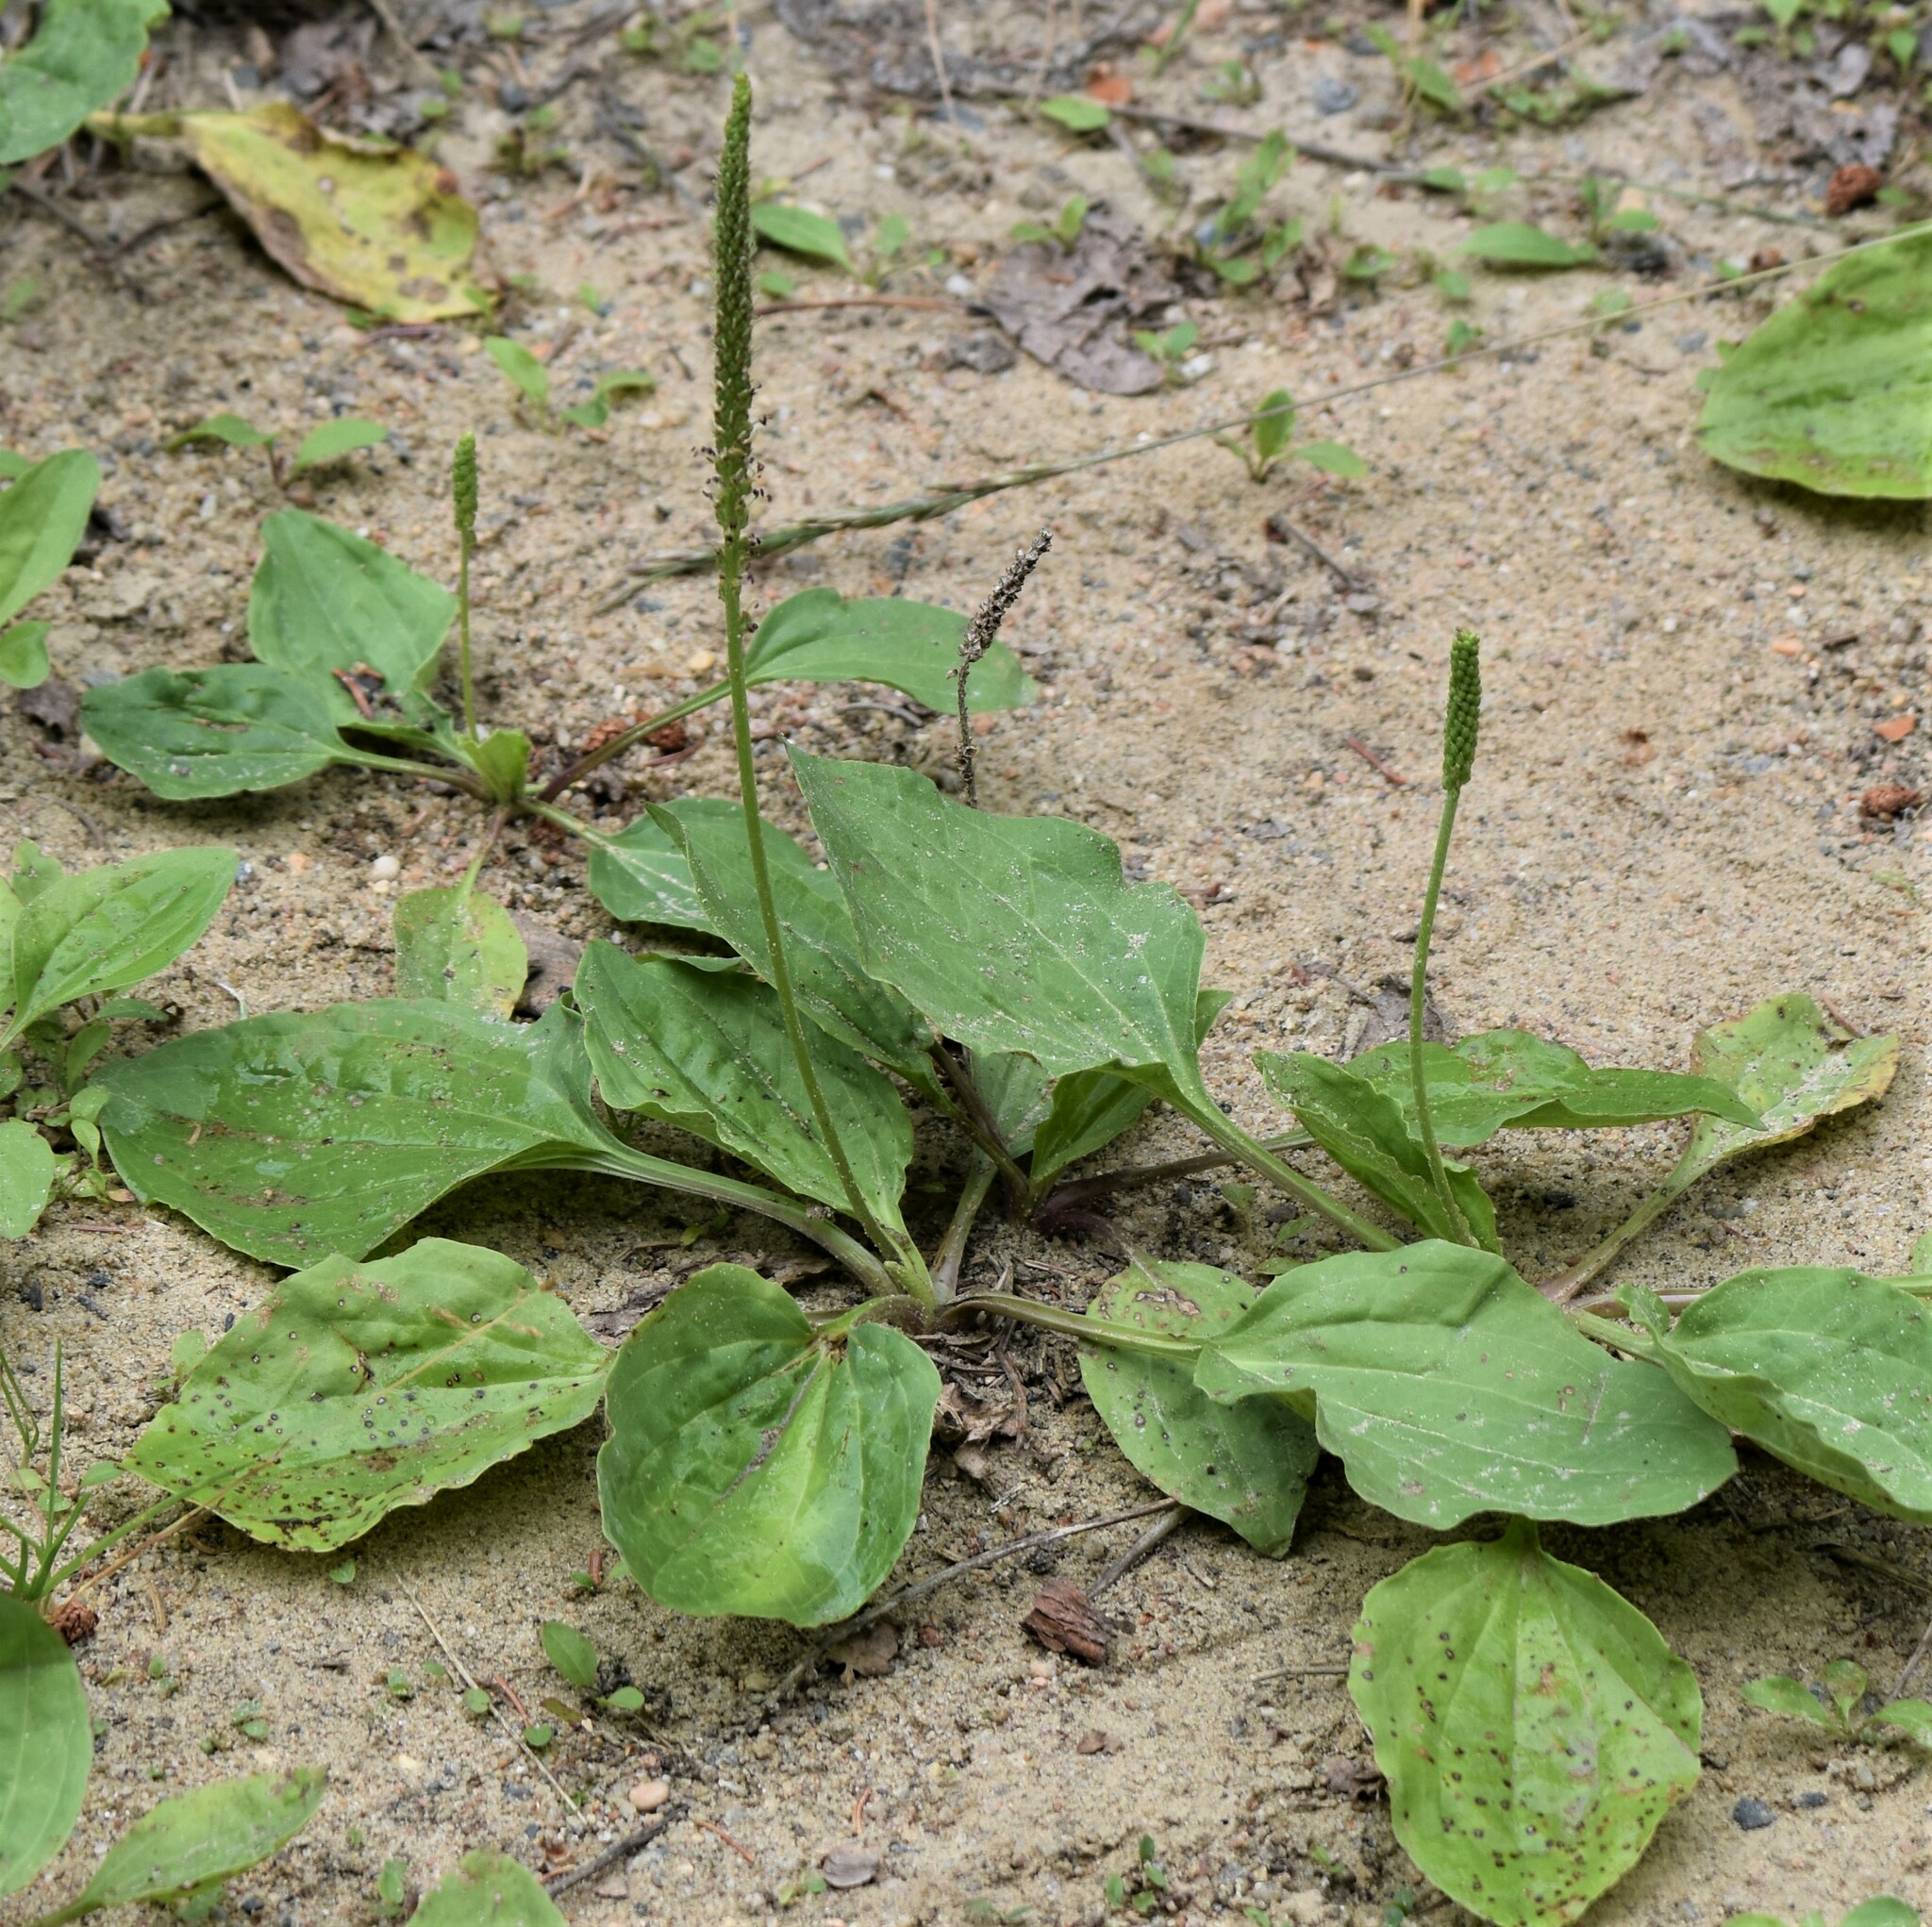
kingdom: Plantae
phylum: Tracheophyta
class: Magnoliopsida
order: Lamiales
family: Plantaginaceae
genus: Plantago
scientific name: Plantago major
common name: Common plantain
